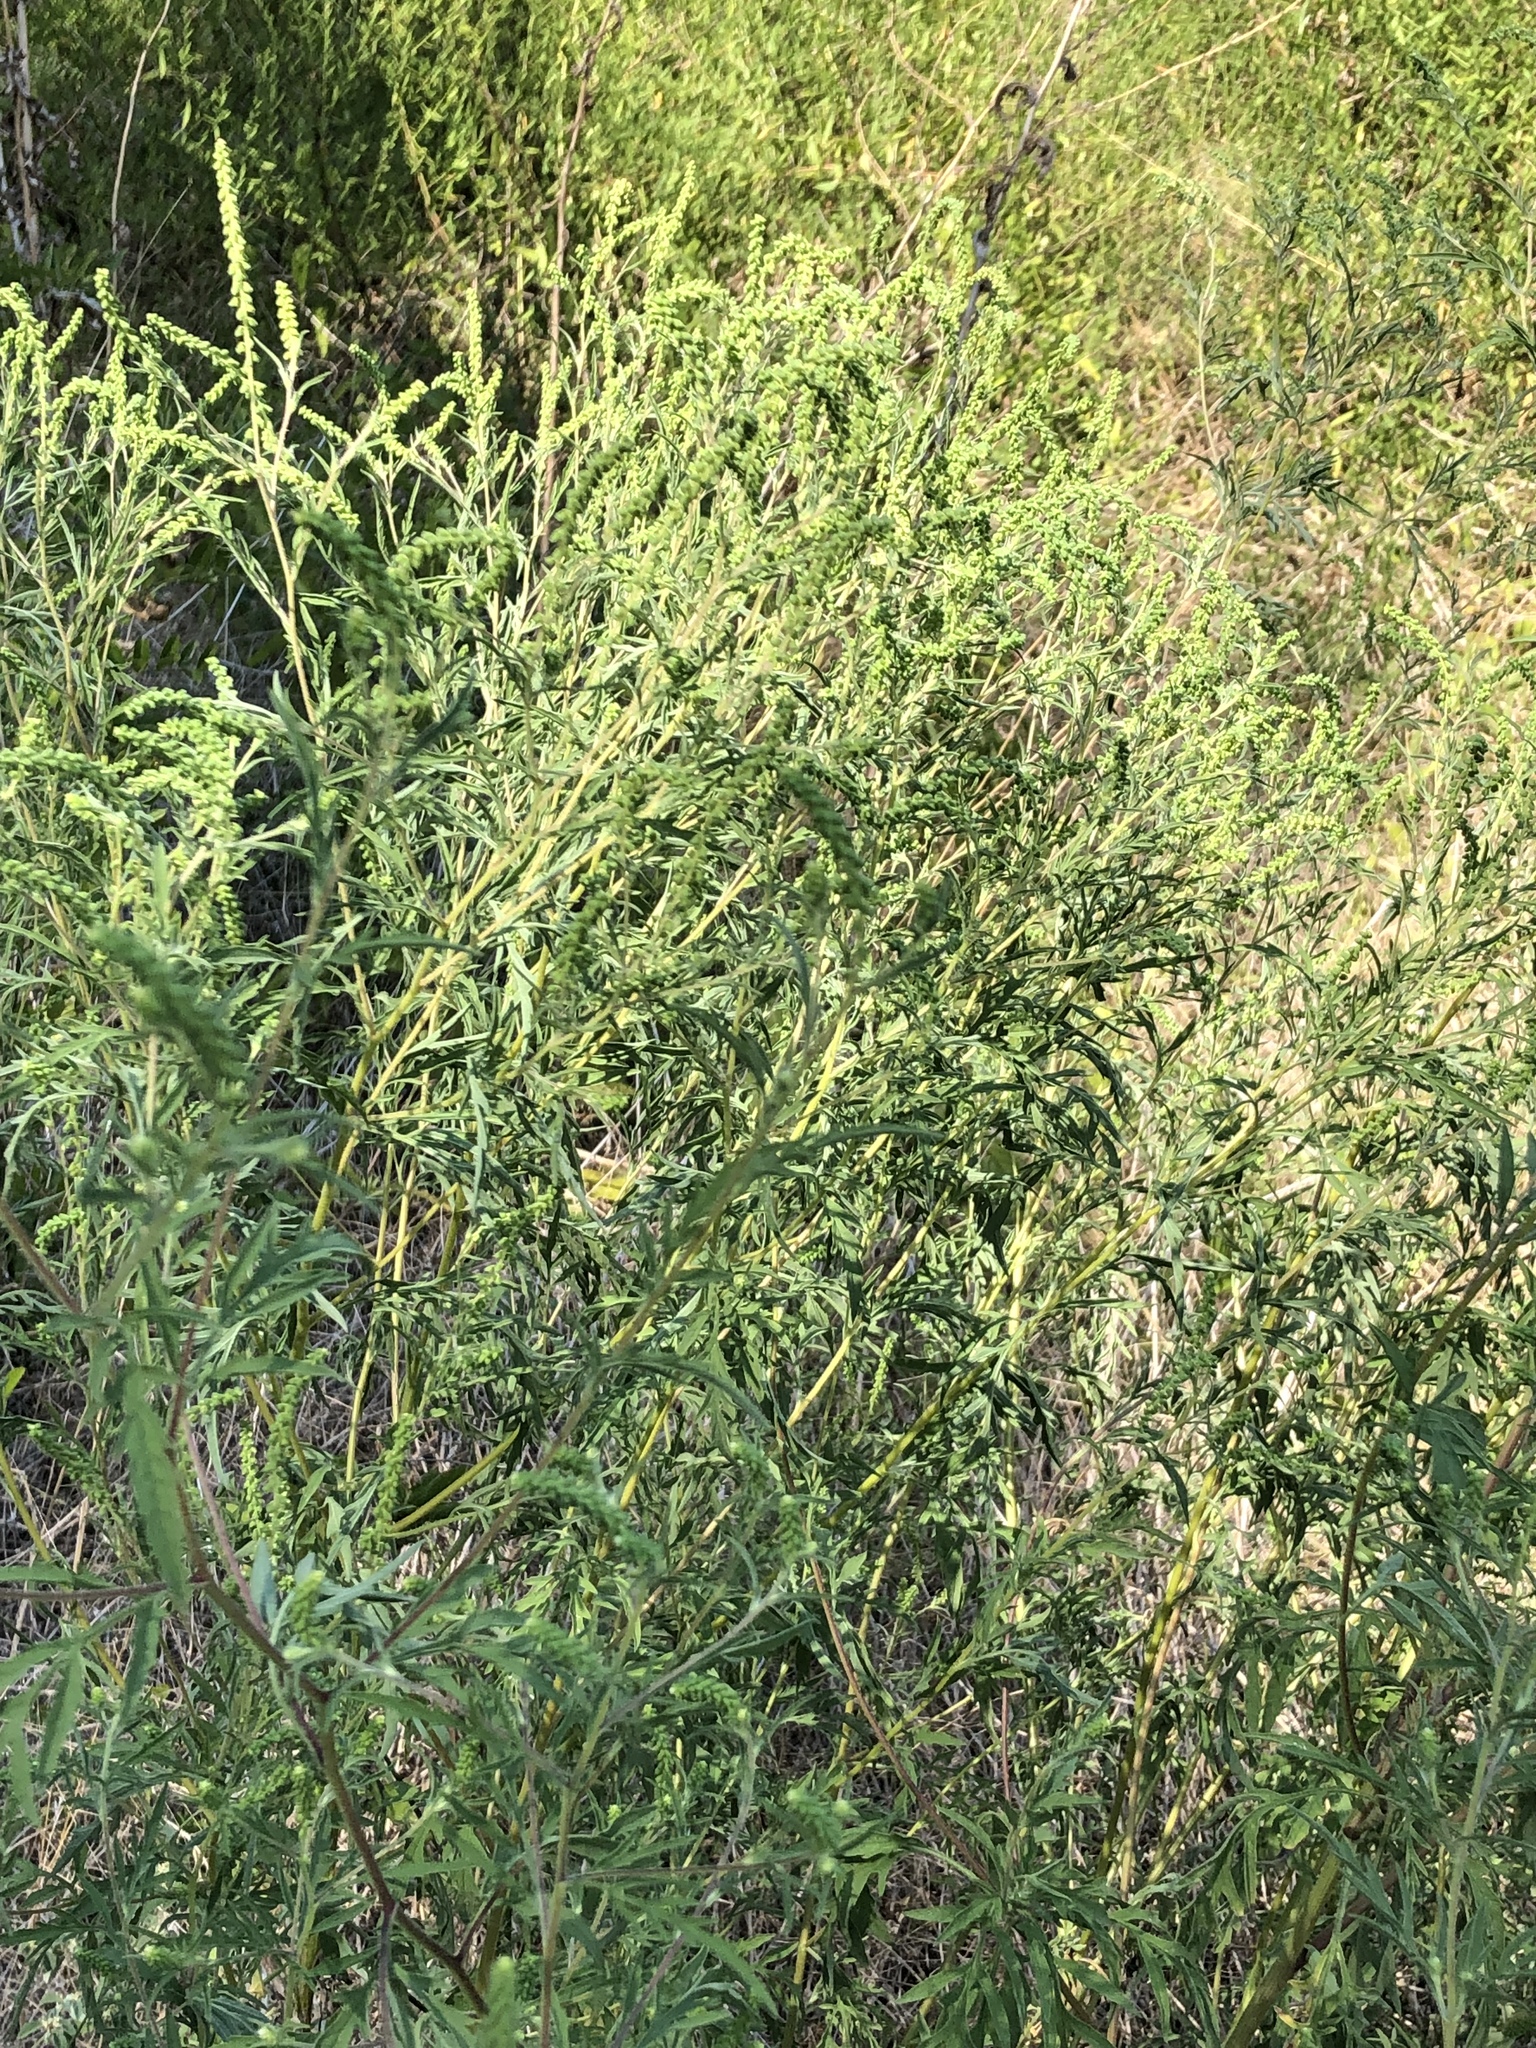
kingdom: Plantae
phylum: Tracheophyta
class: Magnoliopsida
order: Asterales
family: Asteraceae
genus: Ambrosia
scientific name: Ambrosia artemisiifolia
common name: Annual ragweed
